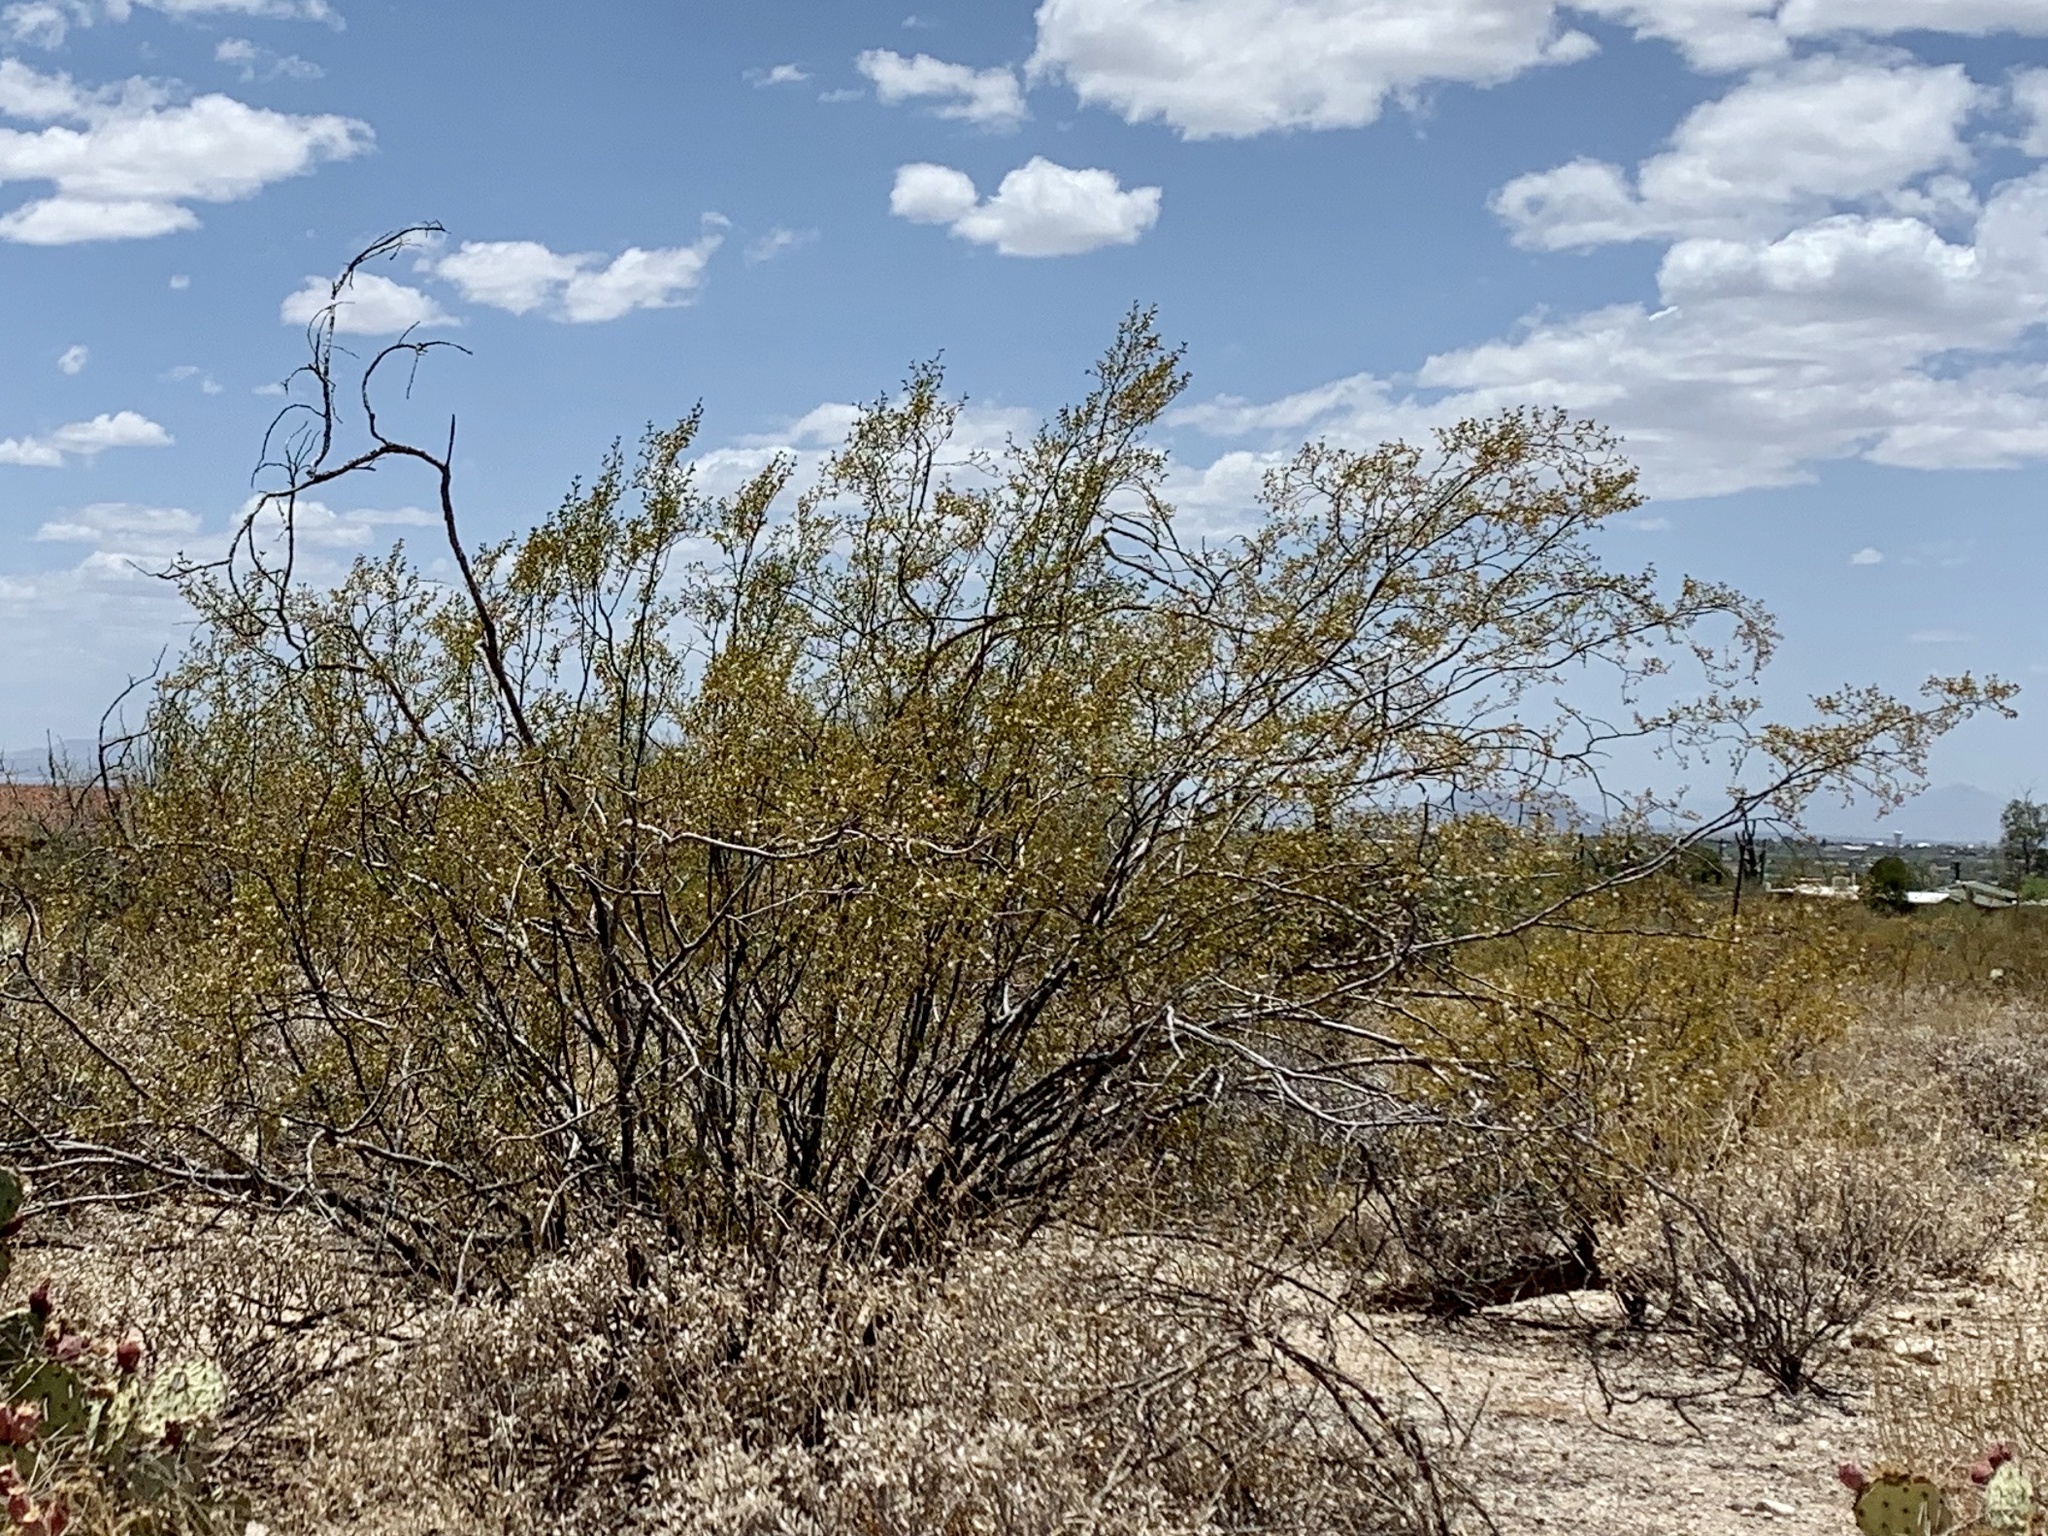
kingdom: Plantae
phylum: Tracheophyta
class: Magnoliopsida
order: Zygophyllales
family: Zygophyllaceae
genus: Larrea
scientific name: Larrea tridentata
